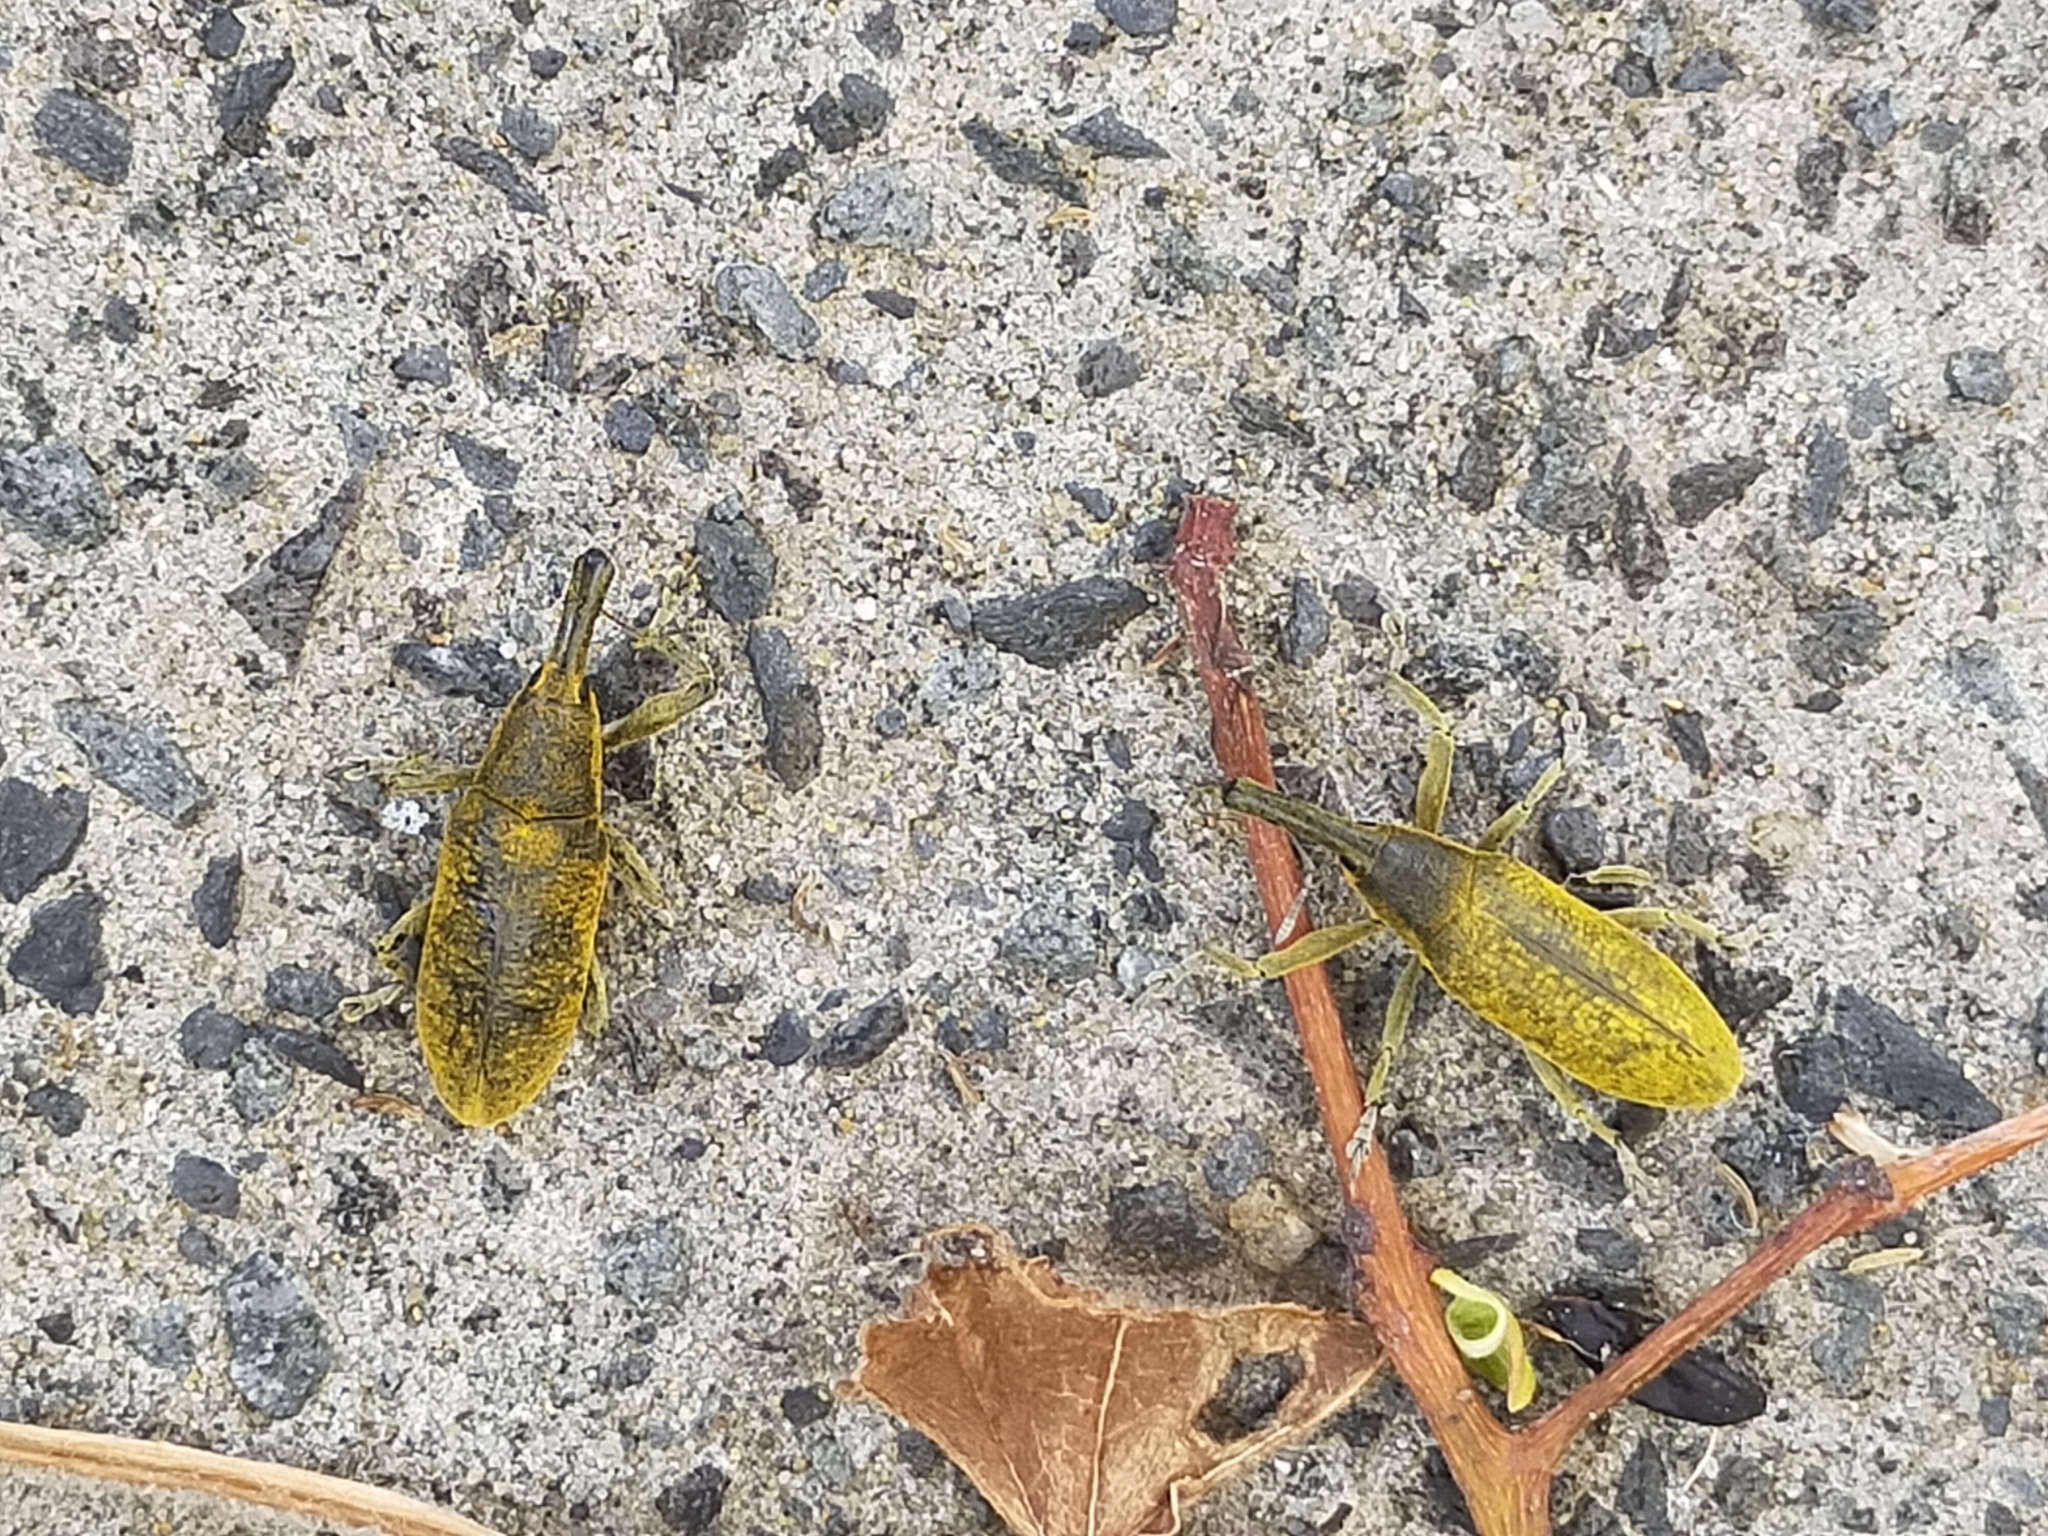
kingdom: Animalia
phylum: Arthropoda
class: Insecta
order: Coleoptera
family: Curculionidae
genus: Lixus
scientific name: Lixus pulverulentus
